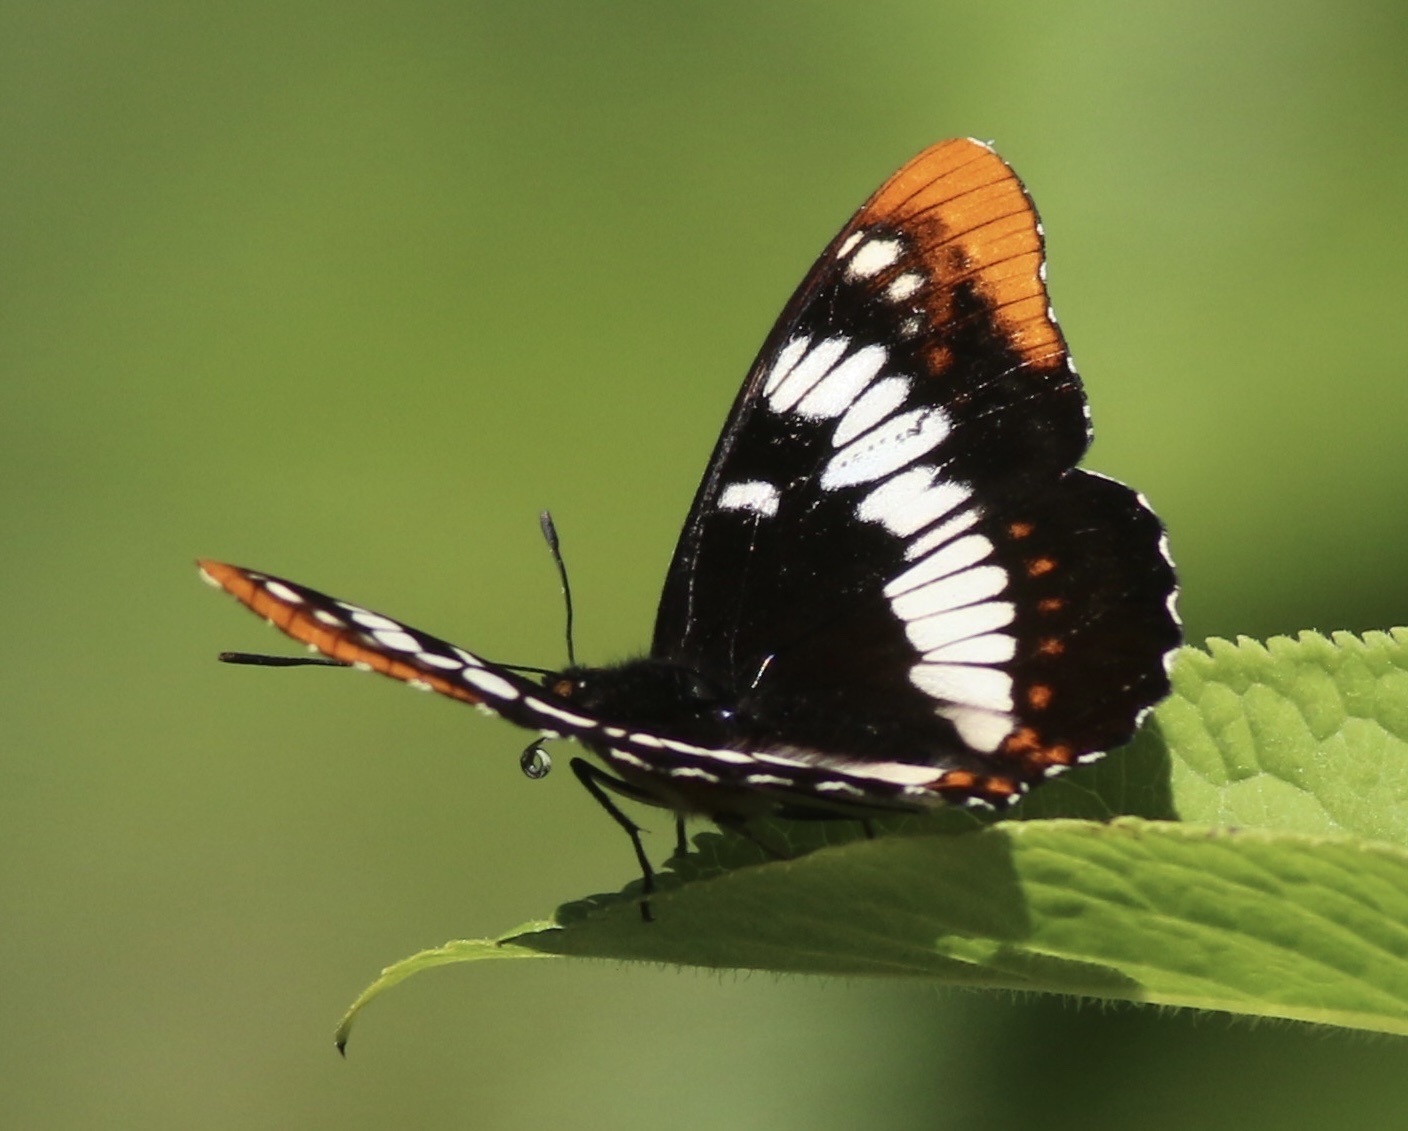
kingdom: Animalia
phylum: Arthropoda
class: Insecta
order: Lepidoptera
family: Nymphalidae
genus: Limenitis
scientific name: Limenitis lorquini
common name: Lorquin's admiral
